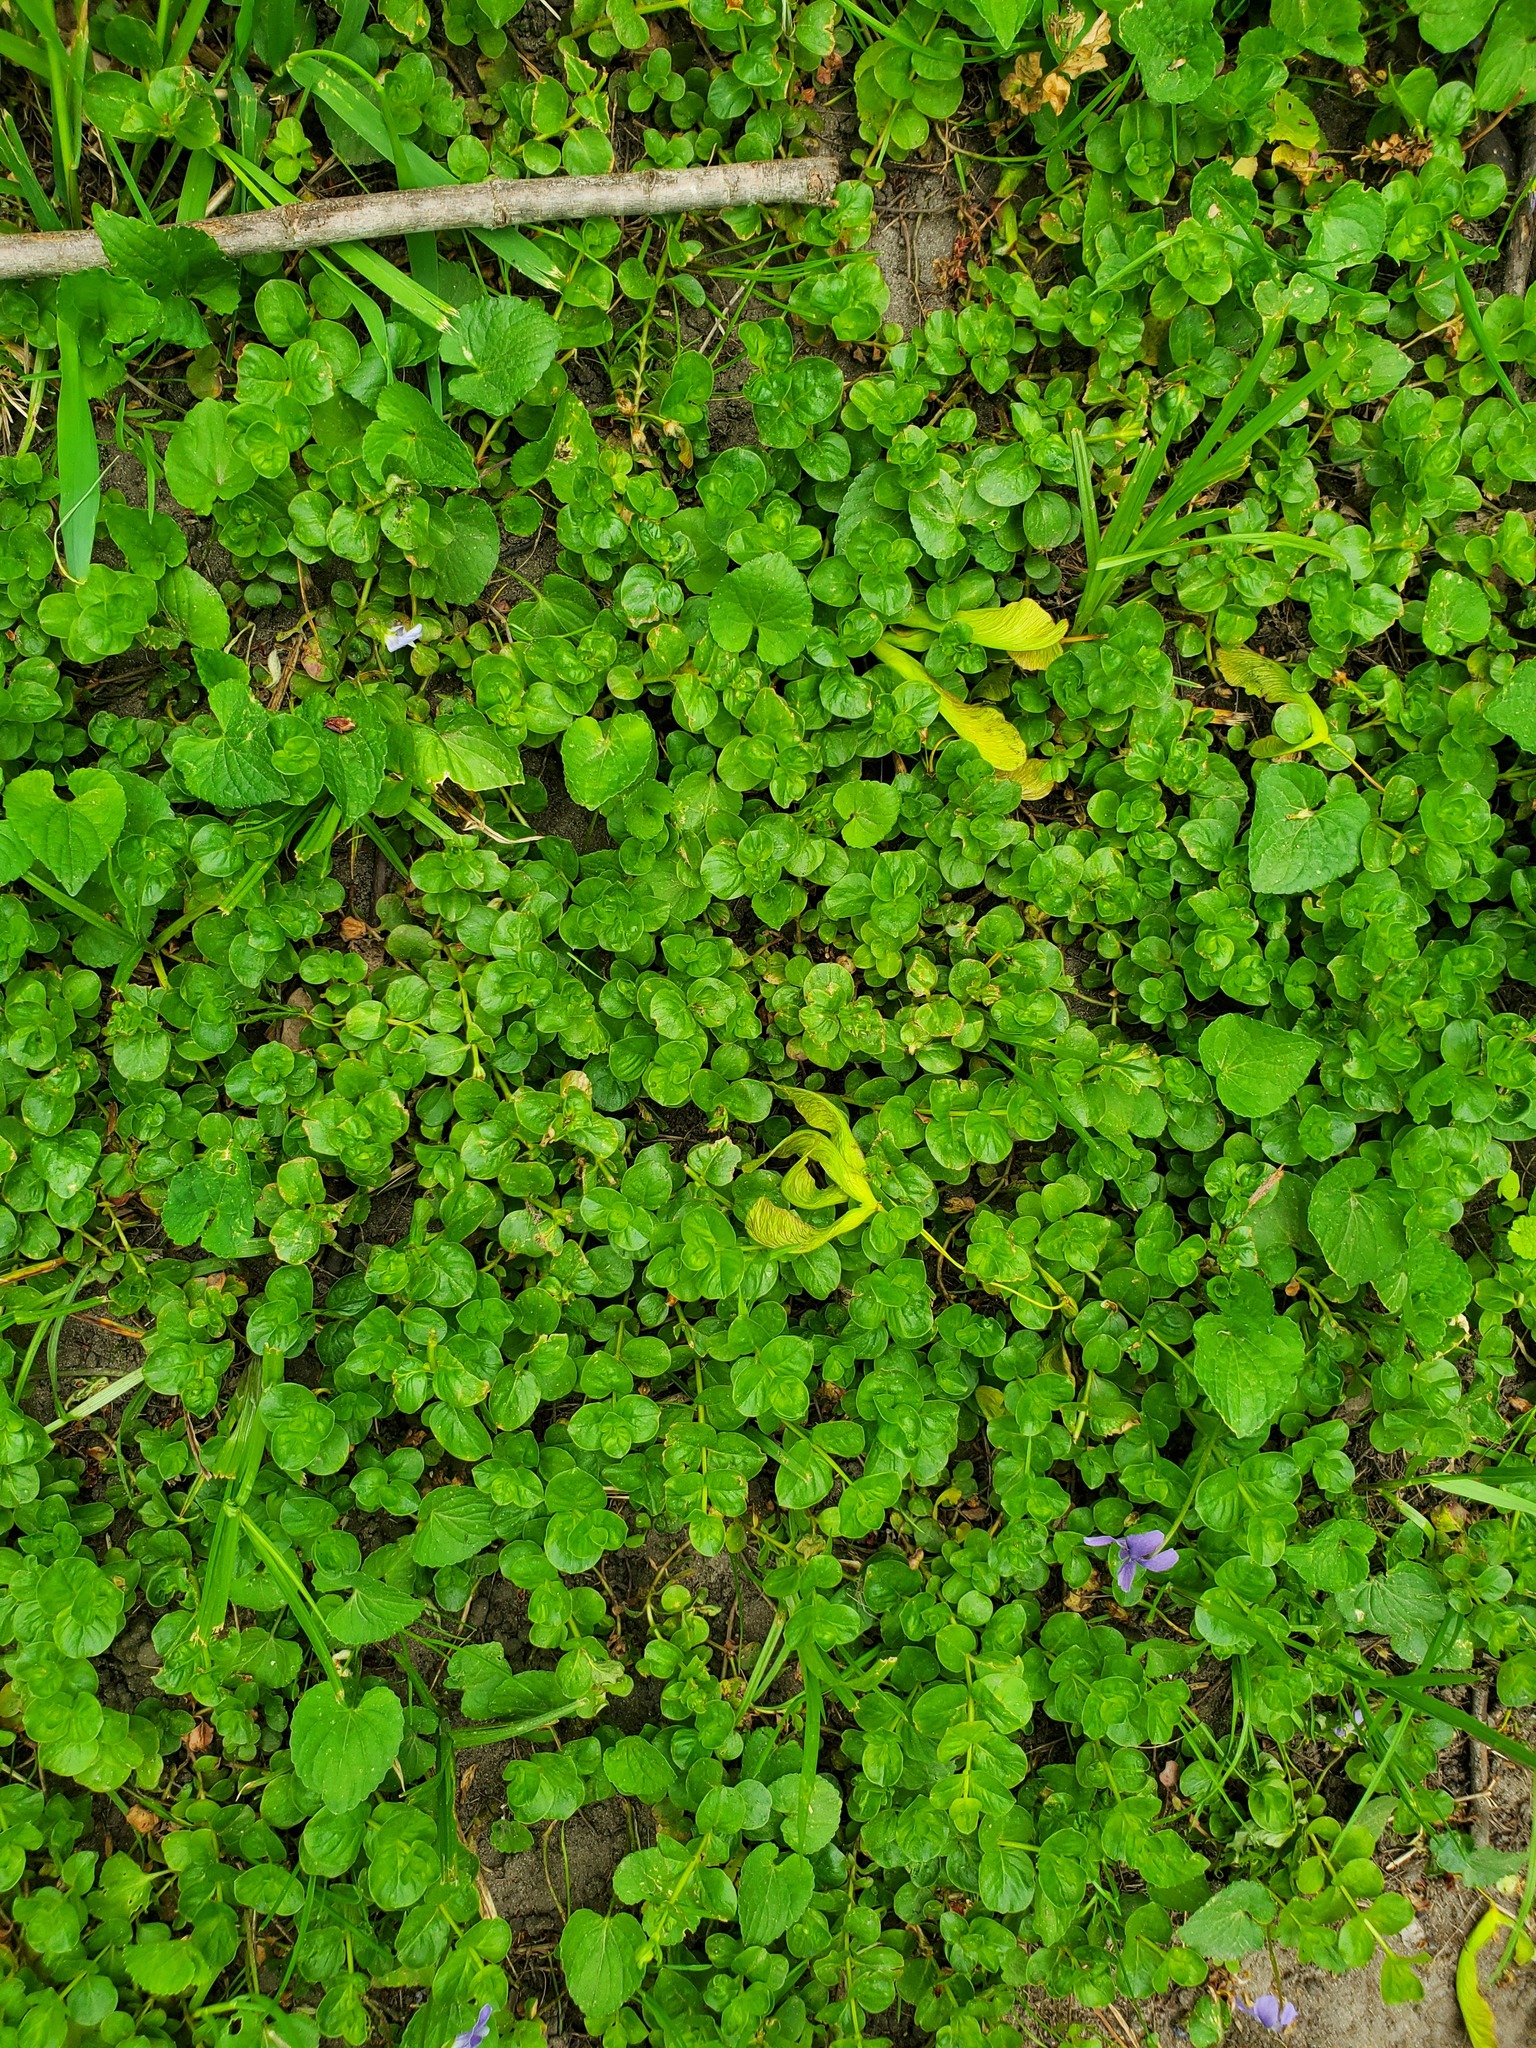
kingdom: Plantae
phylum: Tracheophyta
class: Magnoliopsida
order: Ericales
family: Primulaceae
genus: Lysimachia
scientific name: Lysimachia nummularia
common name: Moneywort
